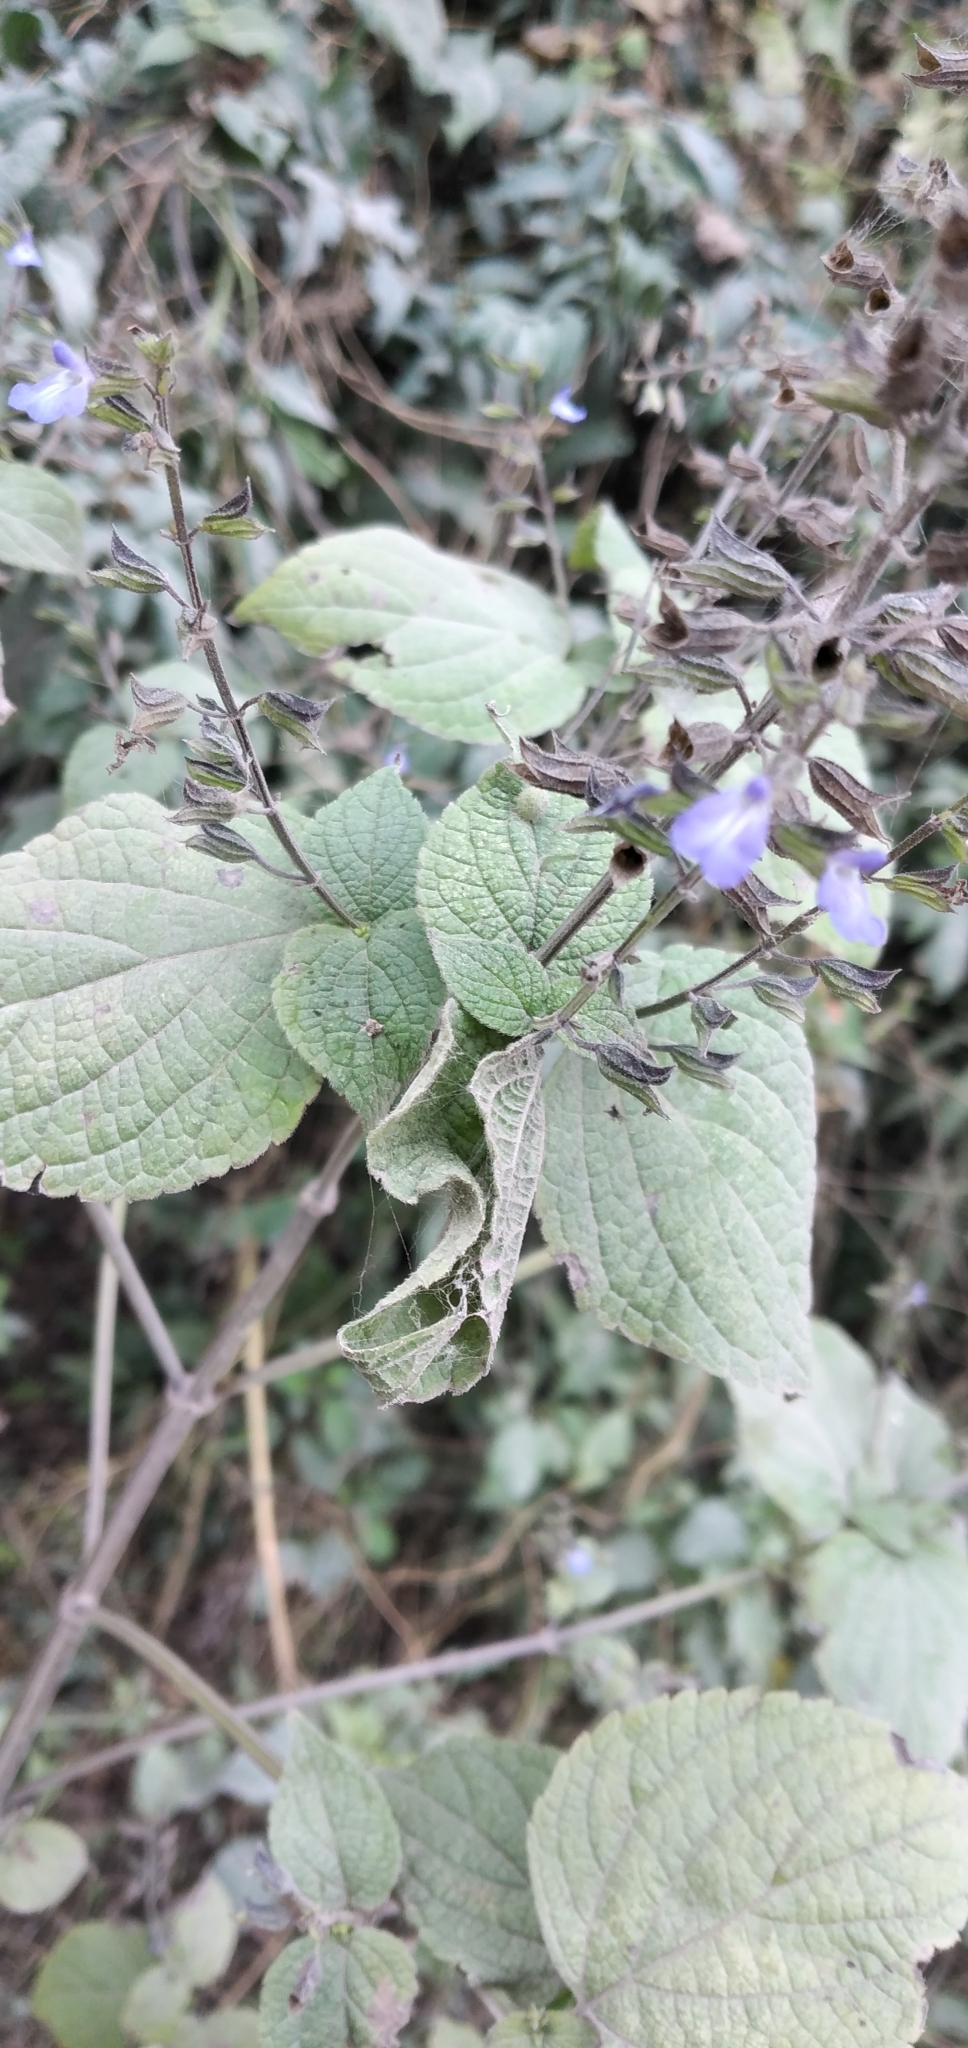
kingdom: Plantae
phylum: Tracheophyta
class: Magnoliopsida
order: Lamiales
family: Lamiaceae
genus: Salvia
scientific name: Salvia personata
